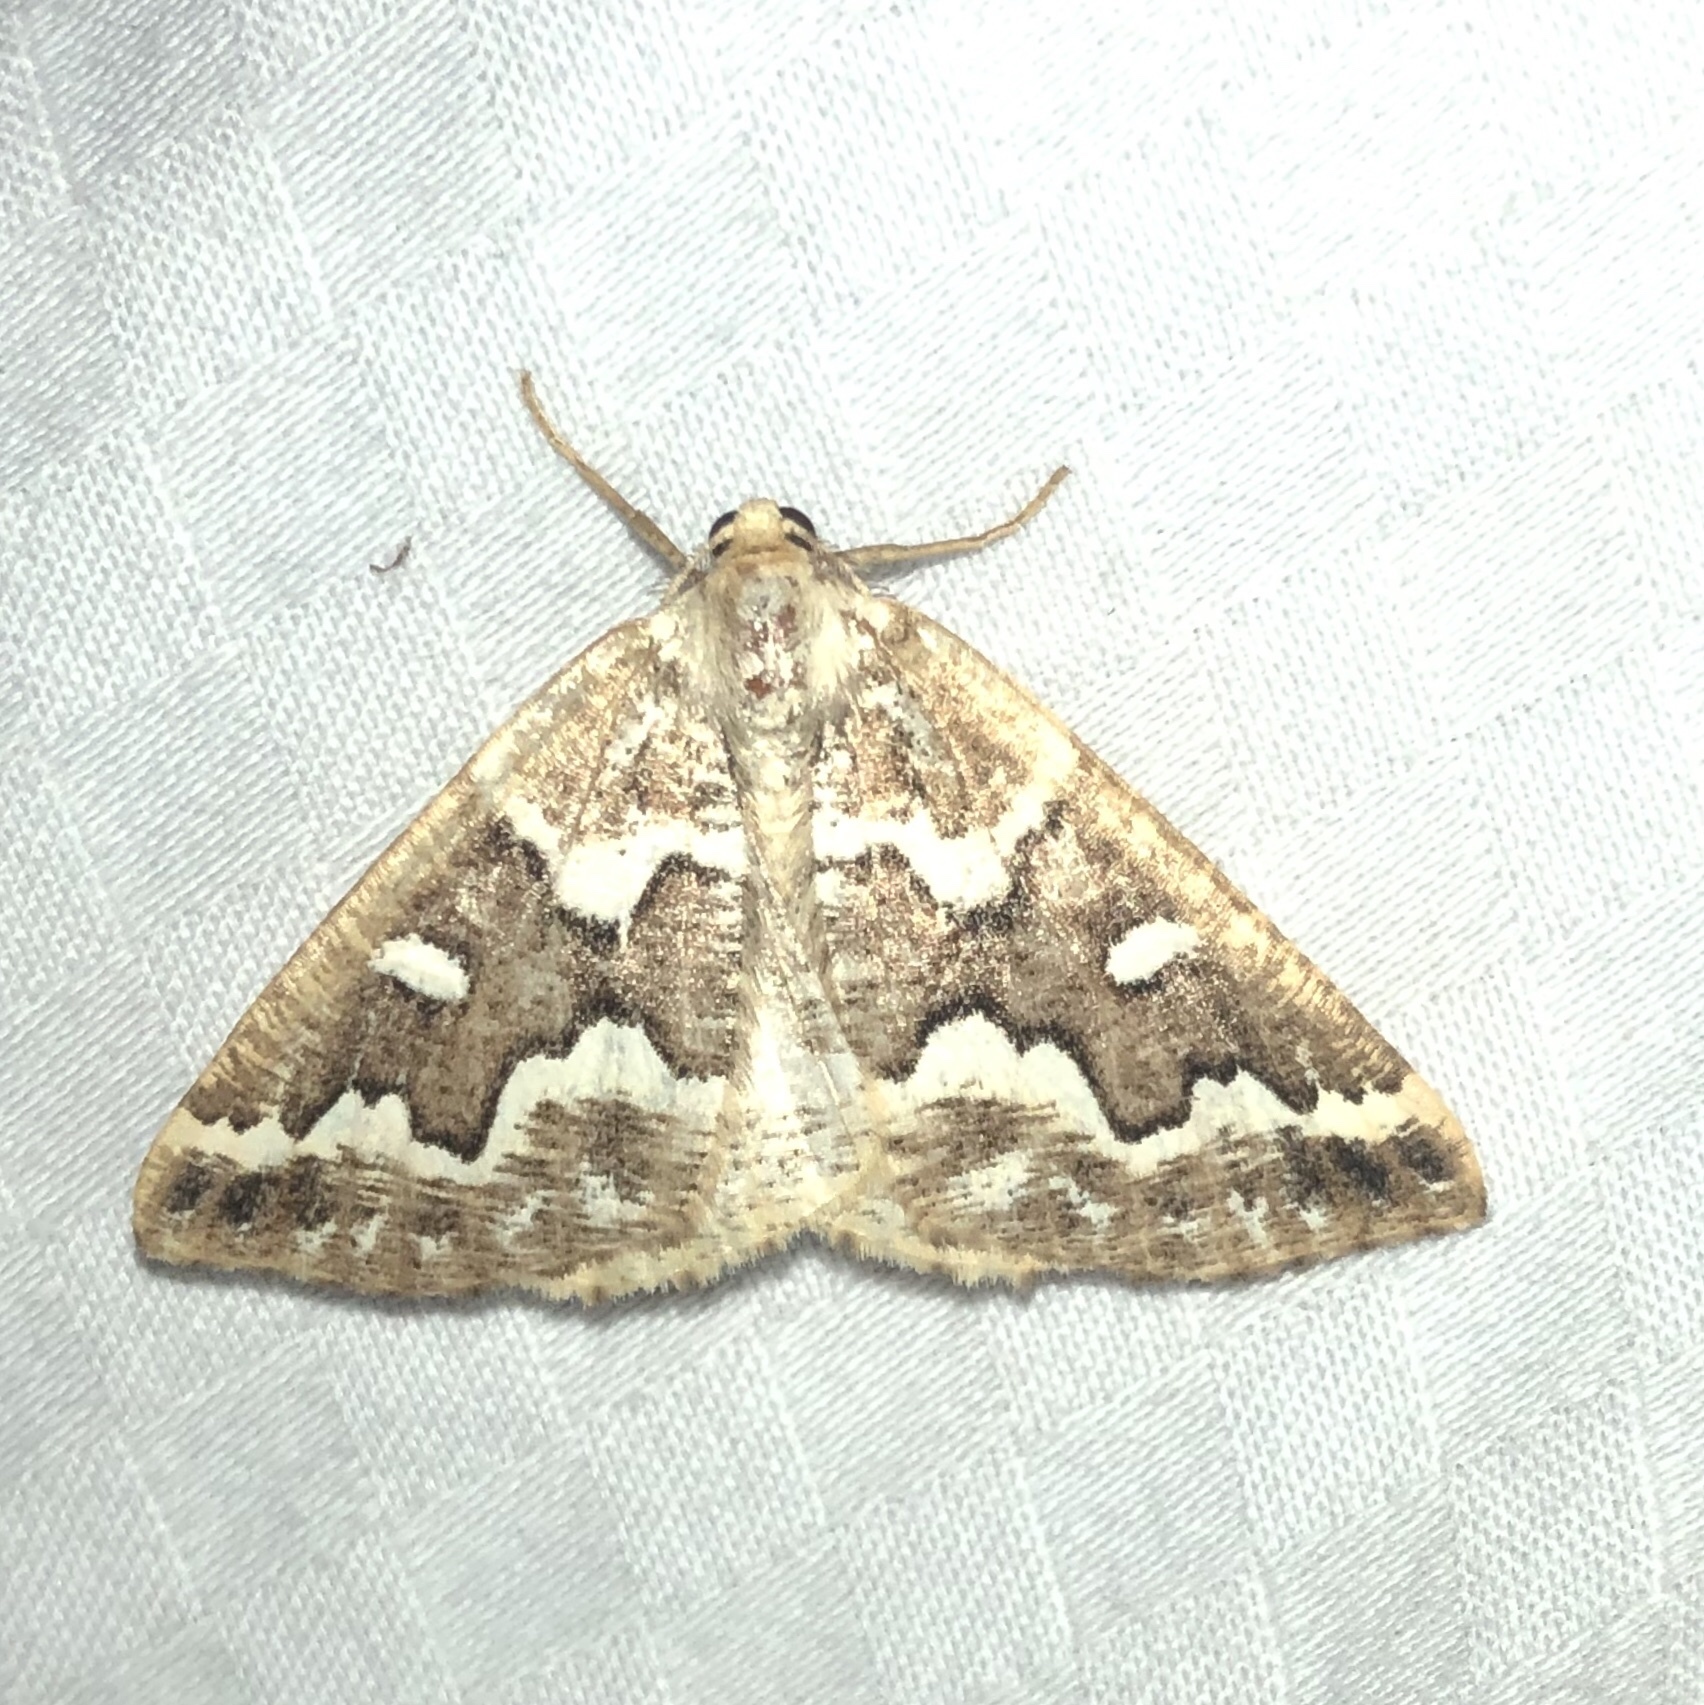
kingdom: Animalia
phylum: Arthropoda
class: Insecta
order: Lepidoptera
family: Geometridae
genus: Caripeta
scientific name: Caripeta divisata
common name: Gray spruce looper
